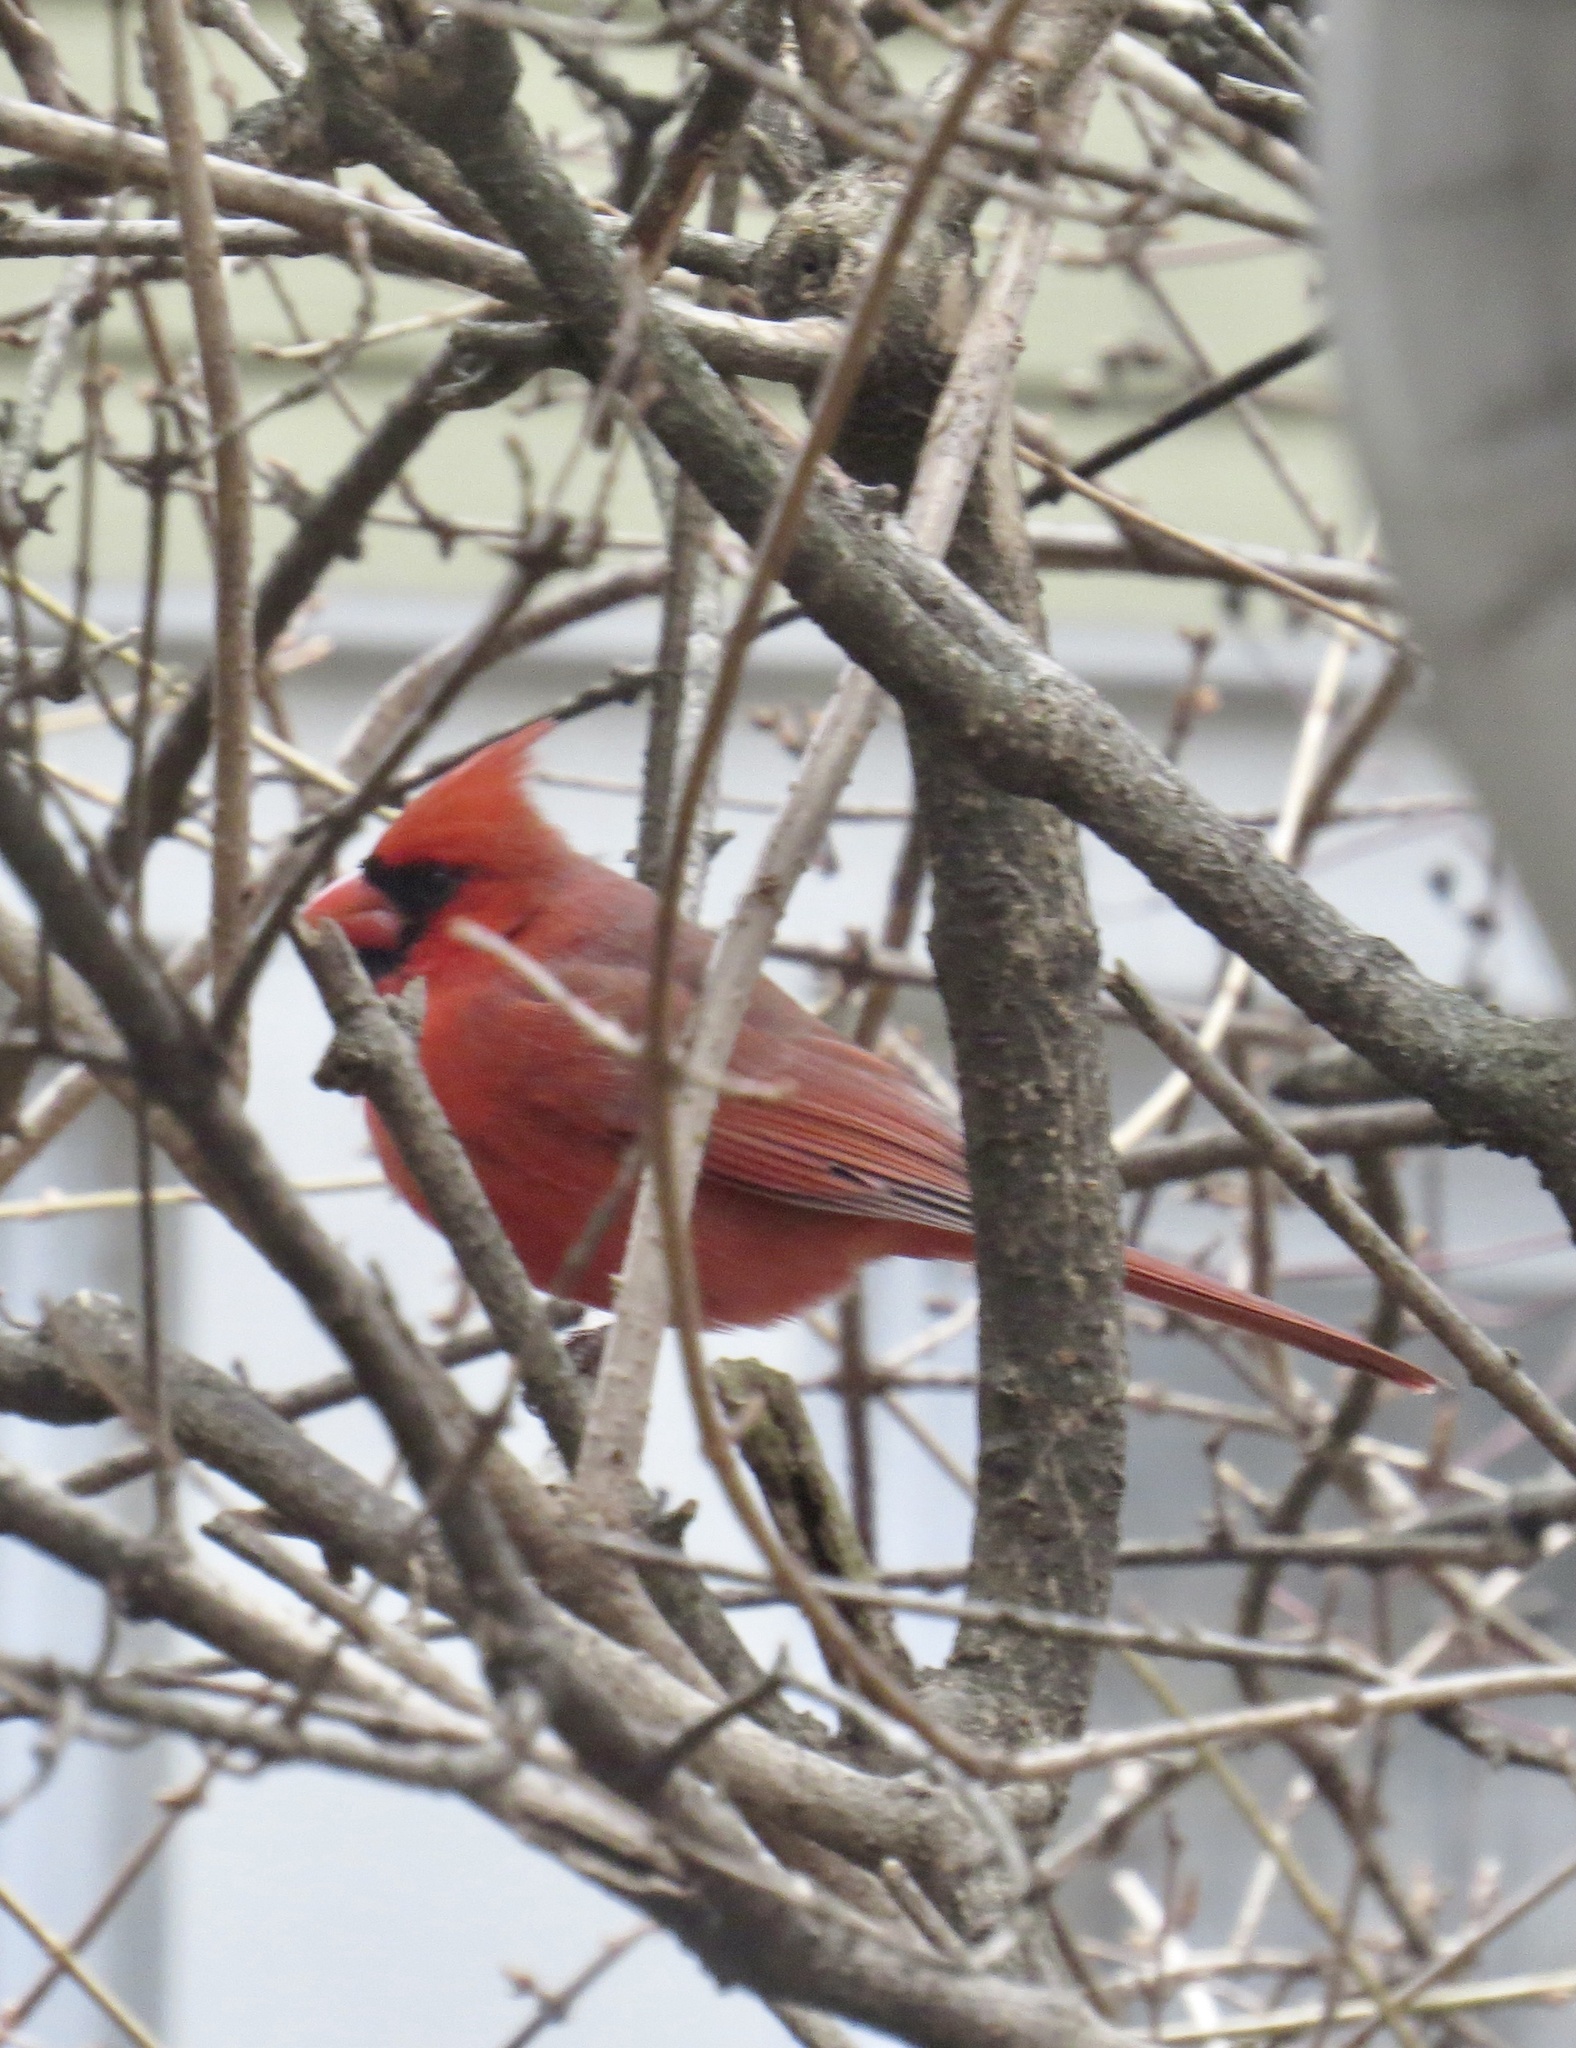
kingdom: Animalia
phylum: Chordata
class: Aves
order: Passeriformes
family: Cardinalidae
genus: Cardinalis
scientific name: Cardinalis cardinalis
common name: Northern cardinal
